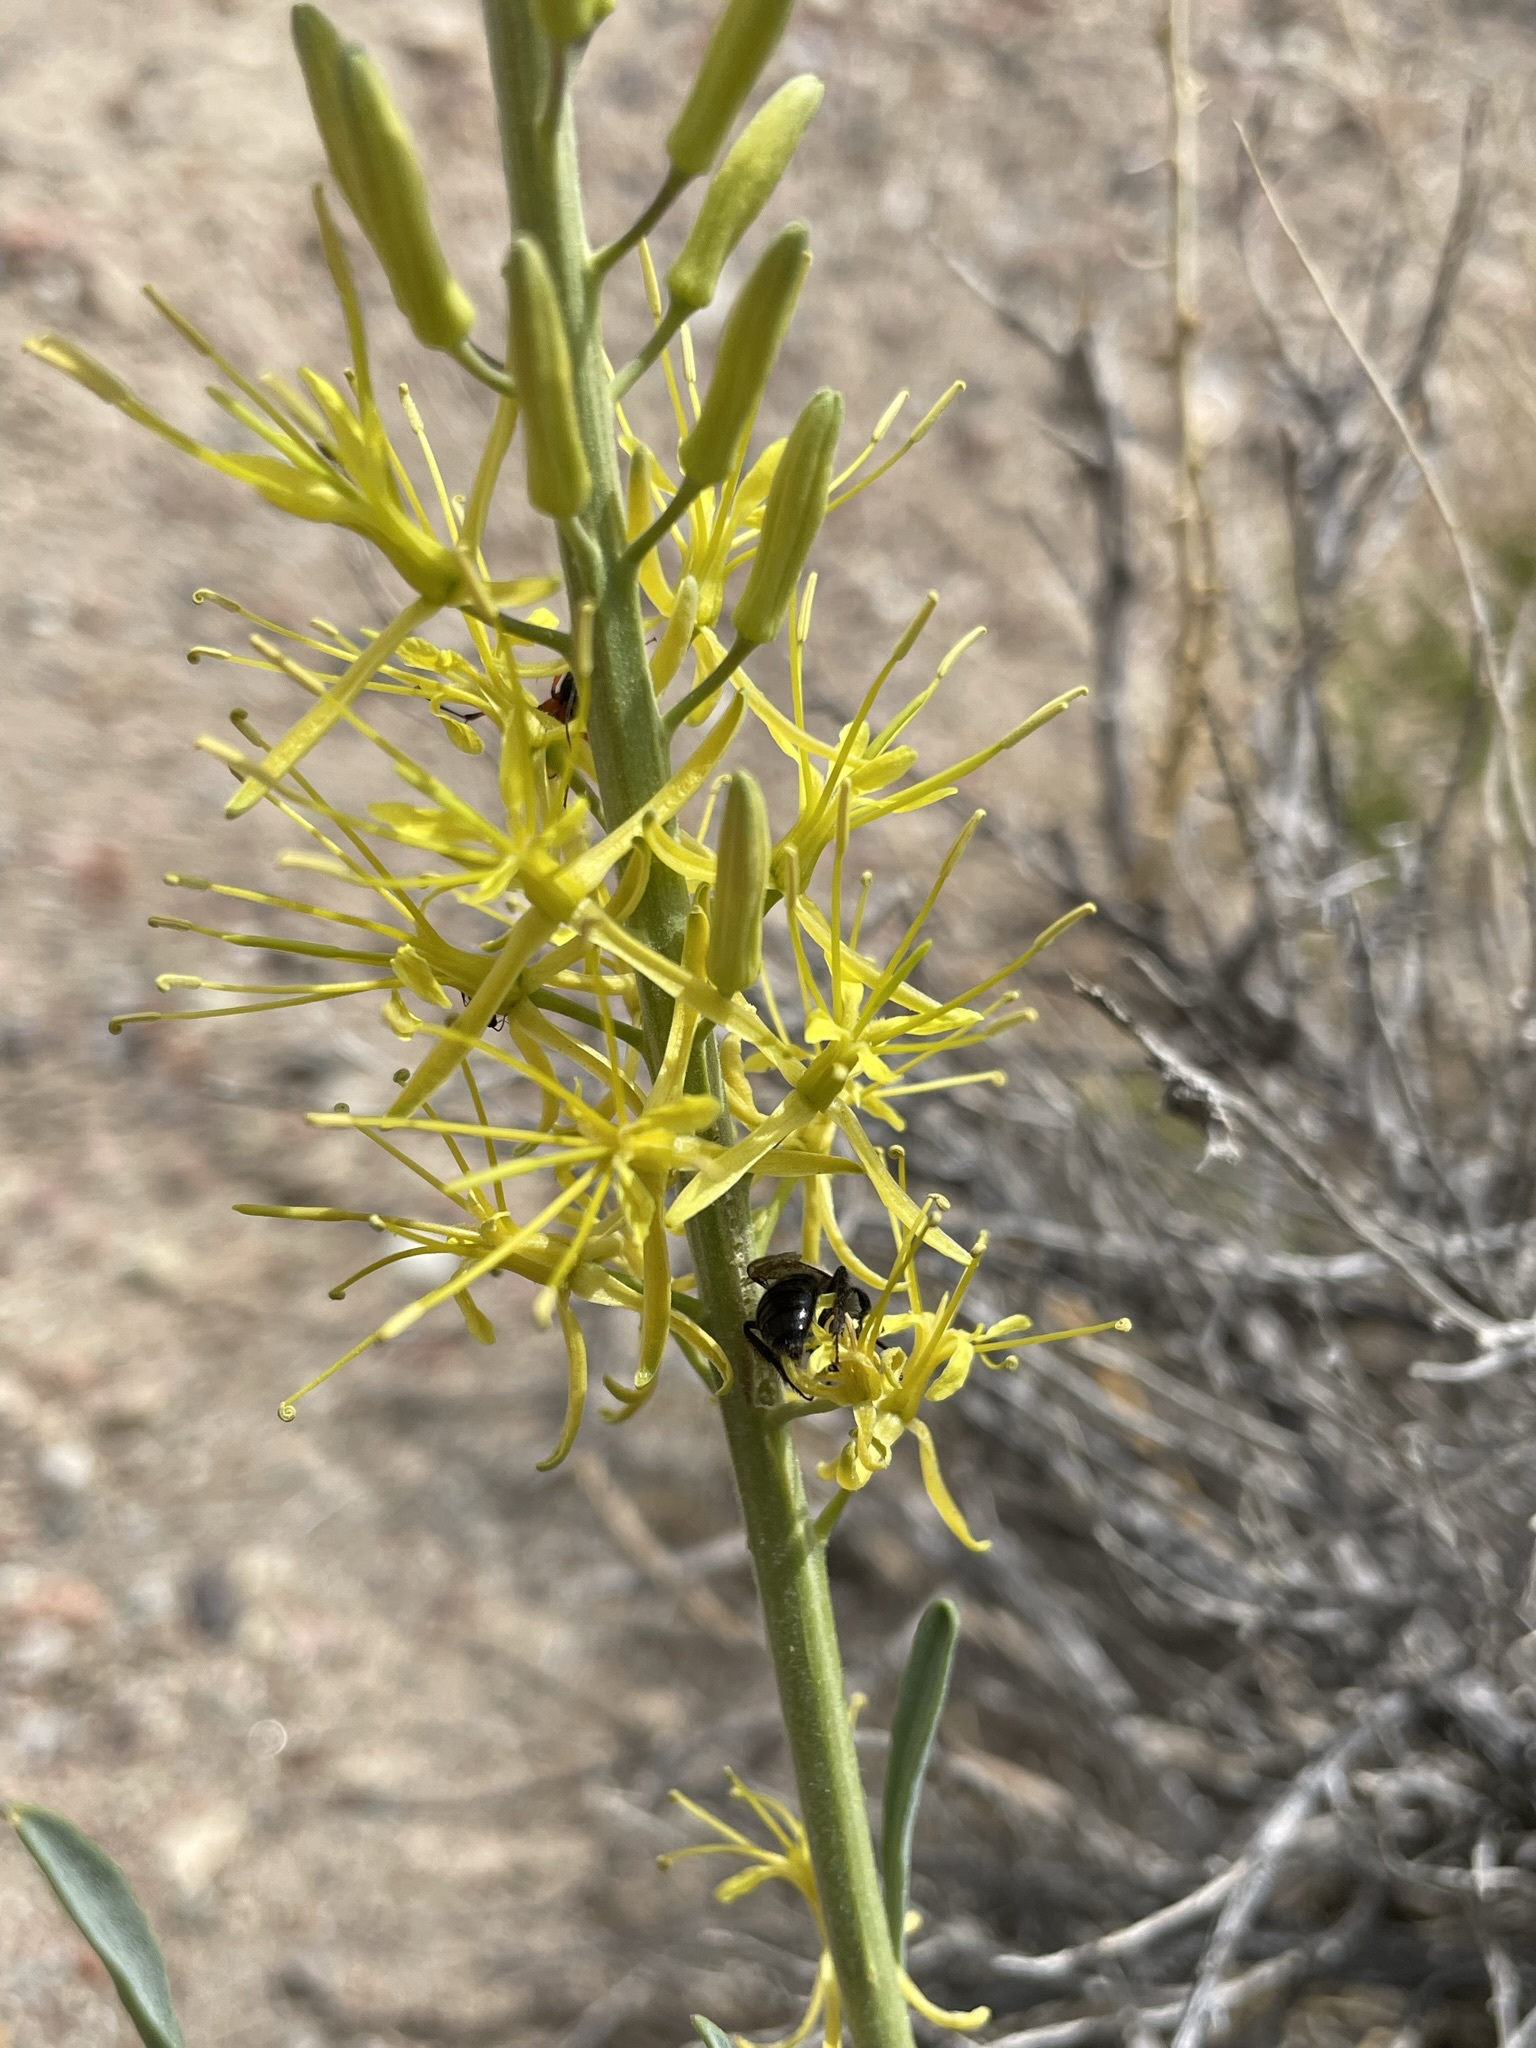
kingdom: Plantae
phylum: Tracheophyta
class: Magnoliopsida
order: Brassicales
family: Brassicaceae
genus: Stanleya
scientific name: Stanleya pinnata
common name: Prince's-plume
